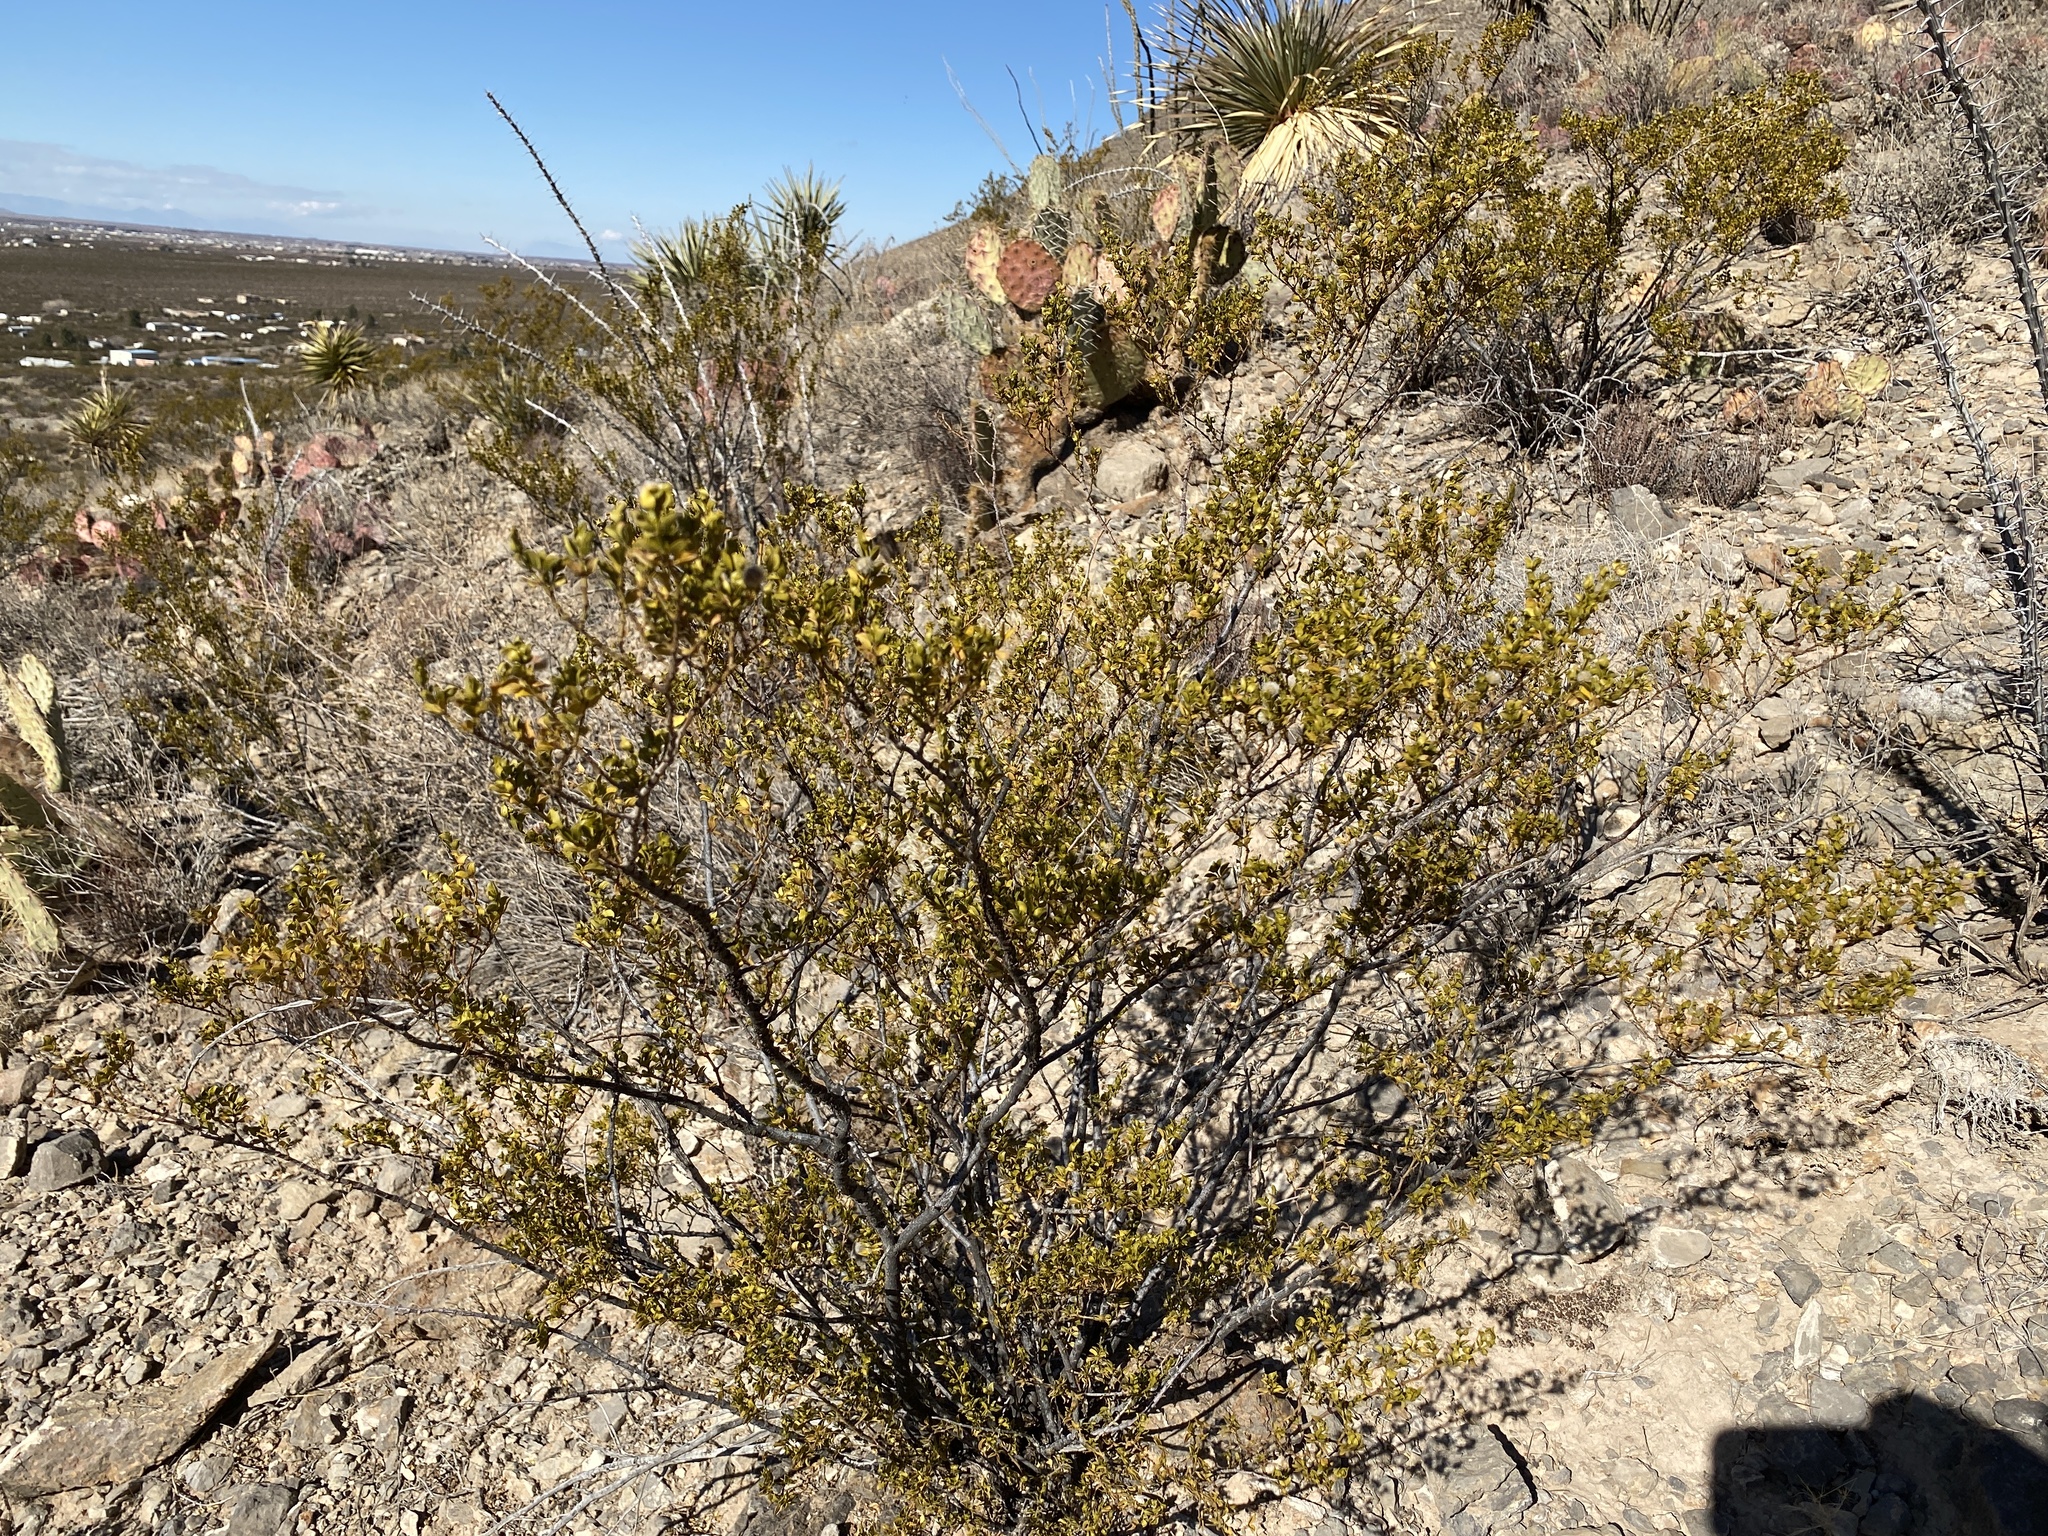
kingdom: Plantae
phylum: Tracheophyta
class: Magnoliopsida
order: Zygophyllales
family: Zygophyllaceae
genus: Larrea
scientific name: Larrea tridentata
